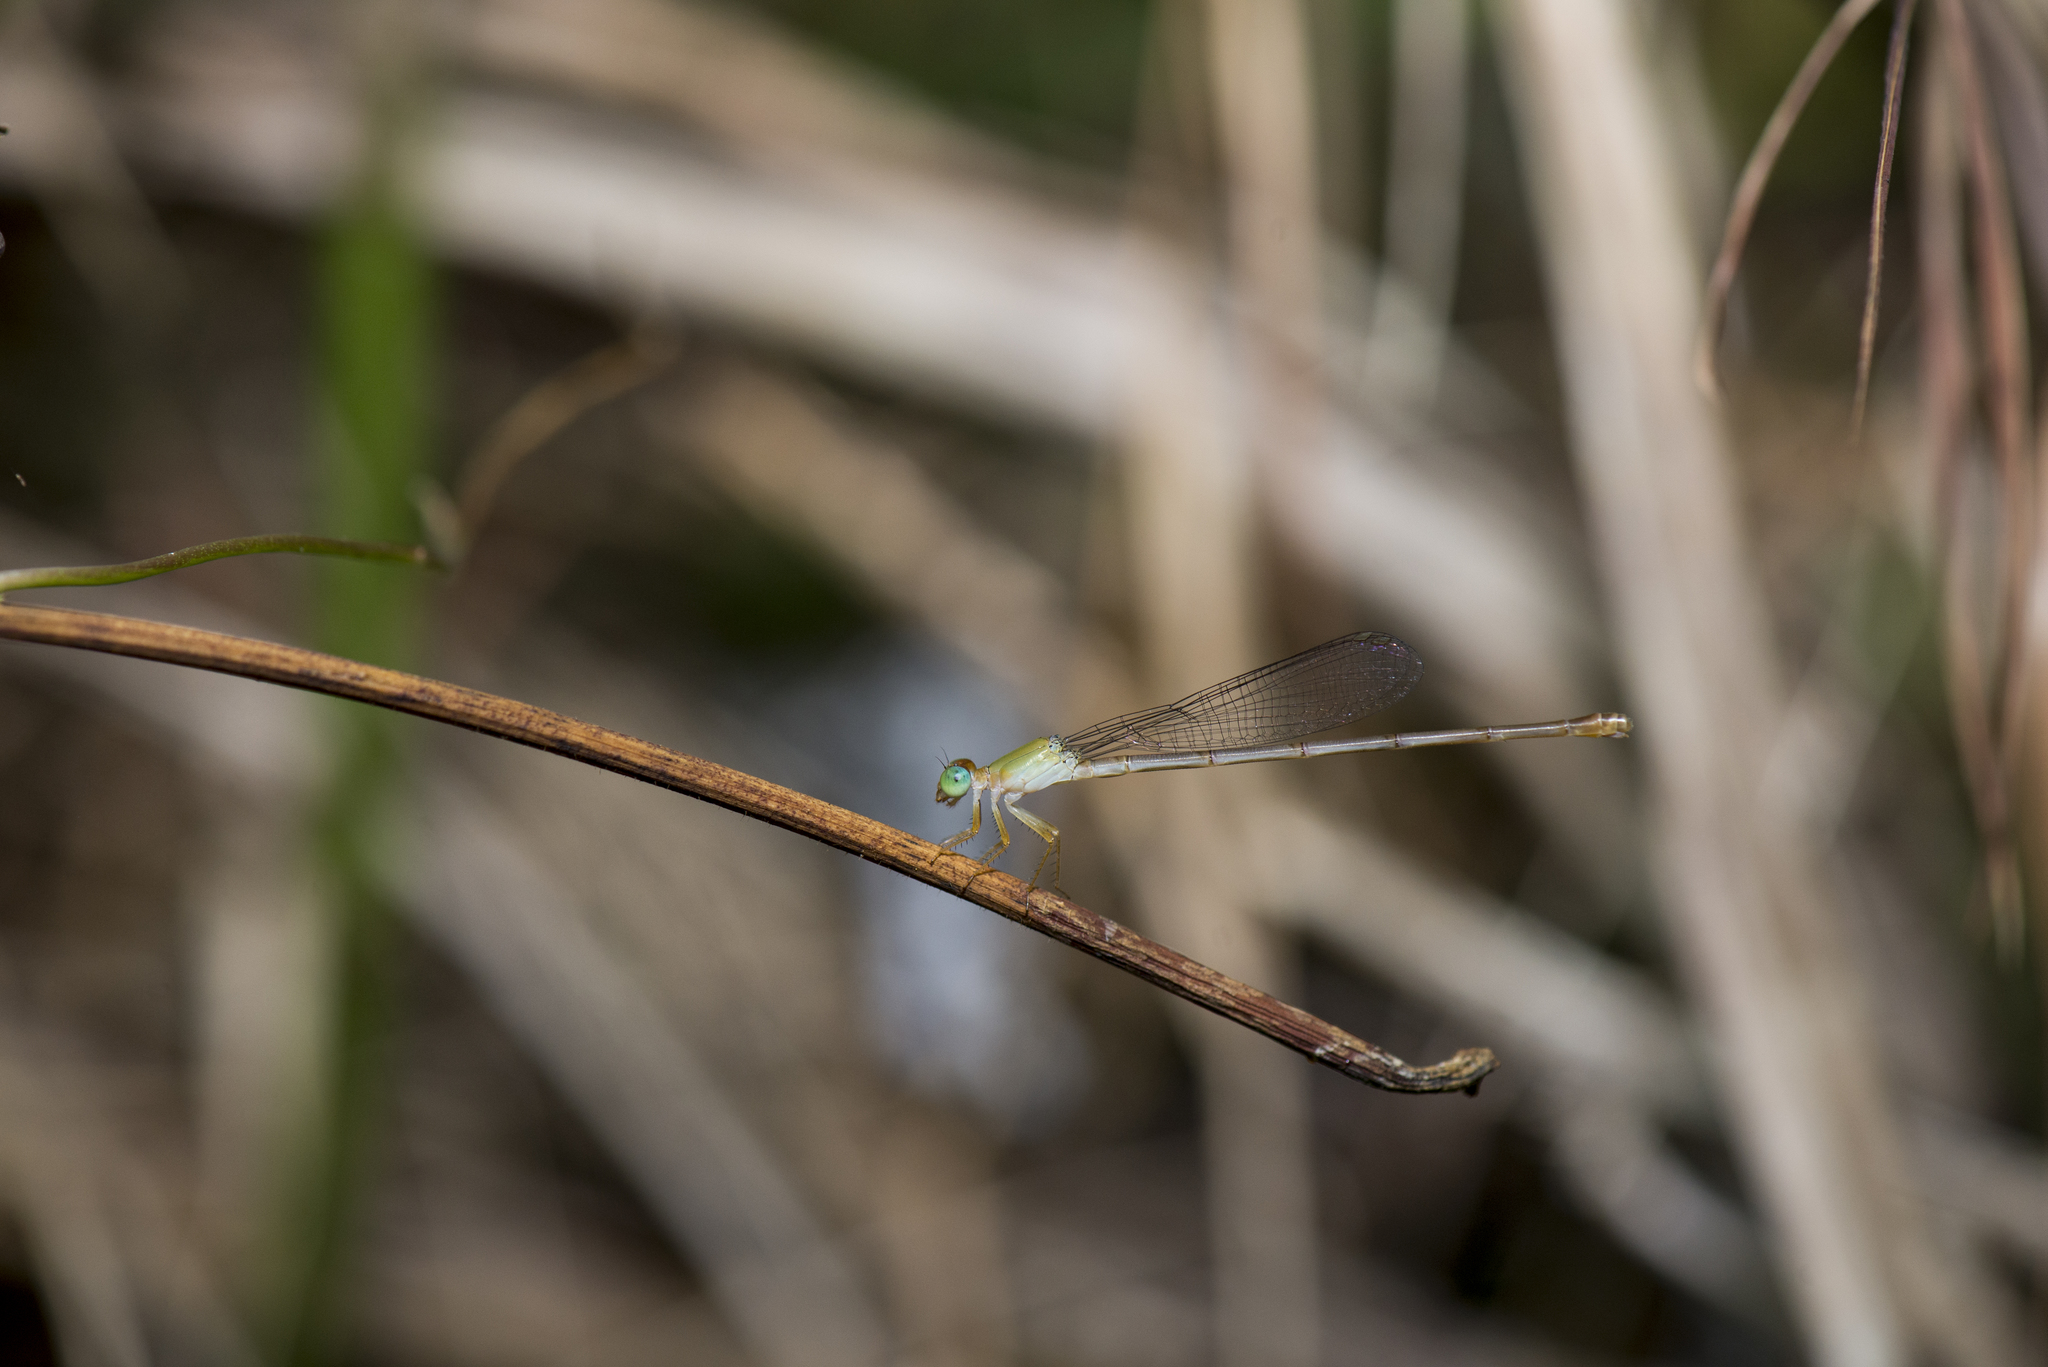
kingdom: Animalia
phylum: Arthropoda
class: Insecta
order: Odonata
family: Coenagrionidae
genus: Ceriagrion
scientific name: Ceriagrion auranticum
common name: Orange-tailed sprite
